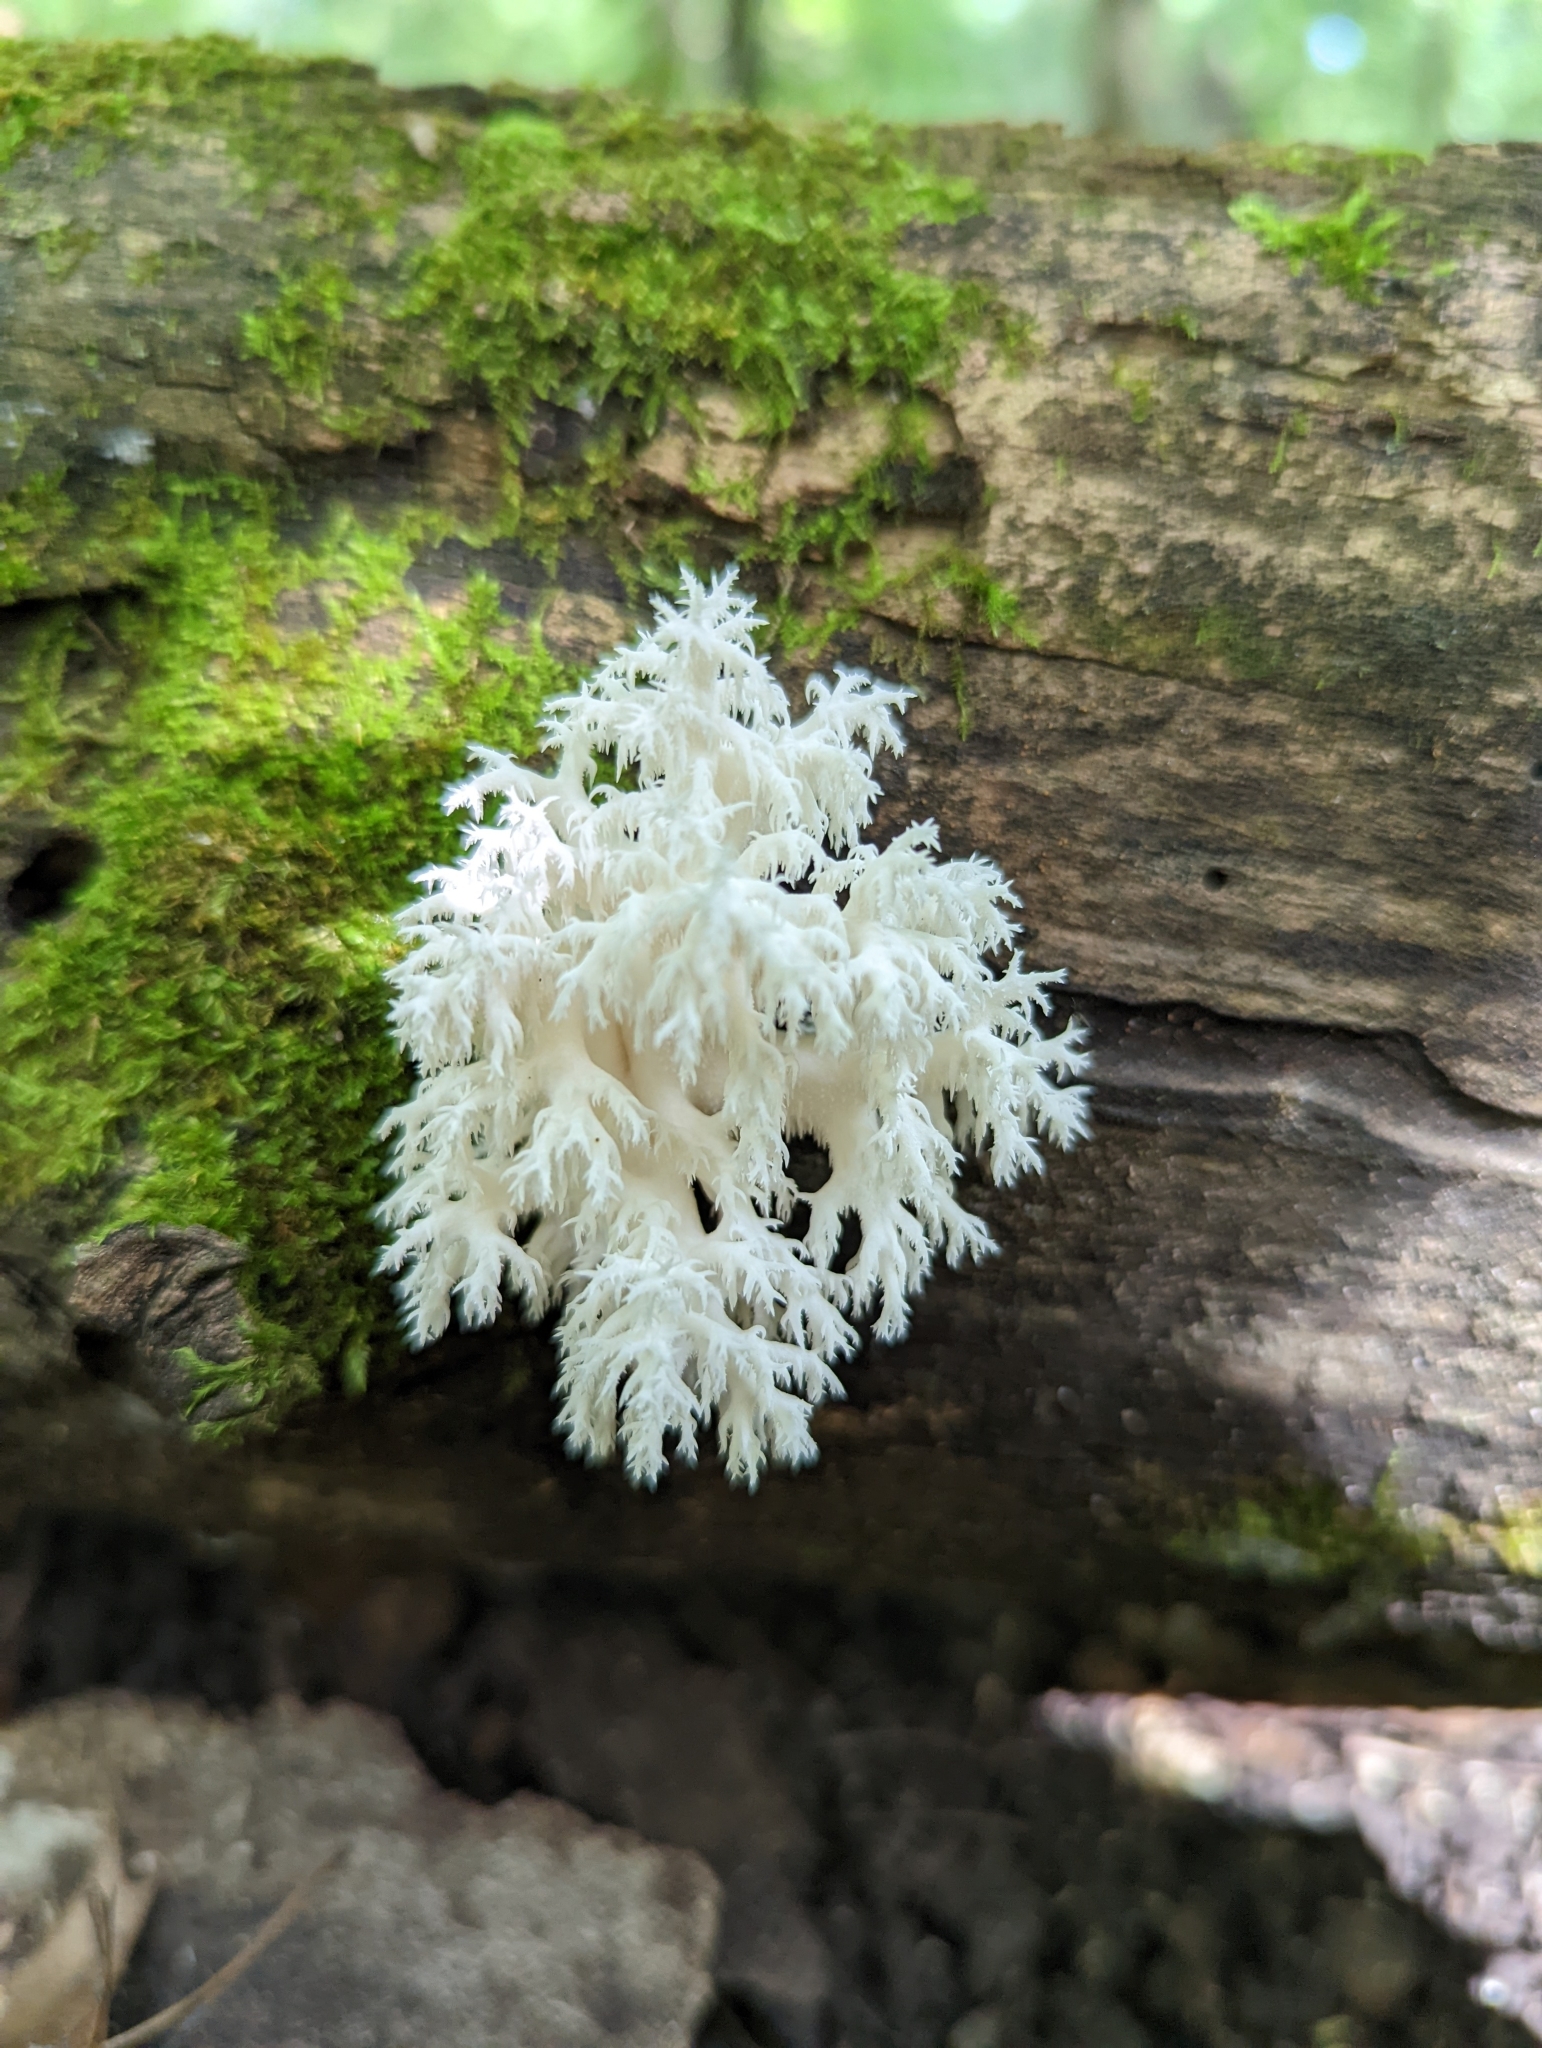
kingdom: Fungi
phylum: Basidiomycota
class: Agaricomycetes
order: Russulales
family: Hericiaceae
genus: Hericium
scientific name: Hericium coralloides
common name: Coral tooth
